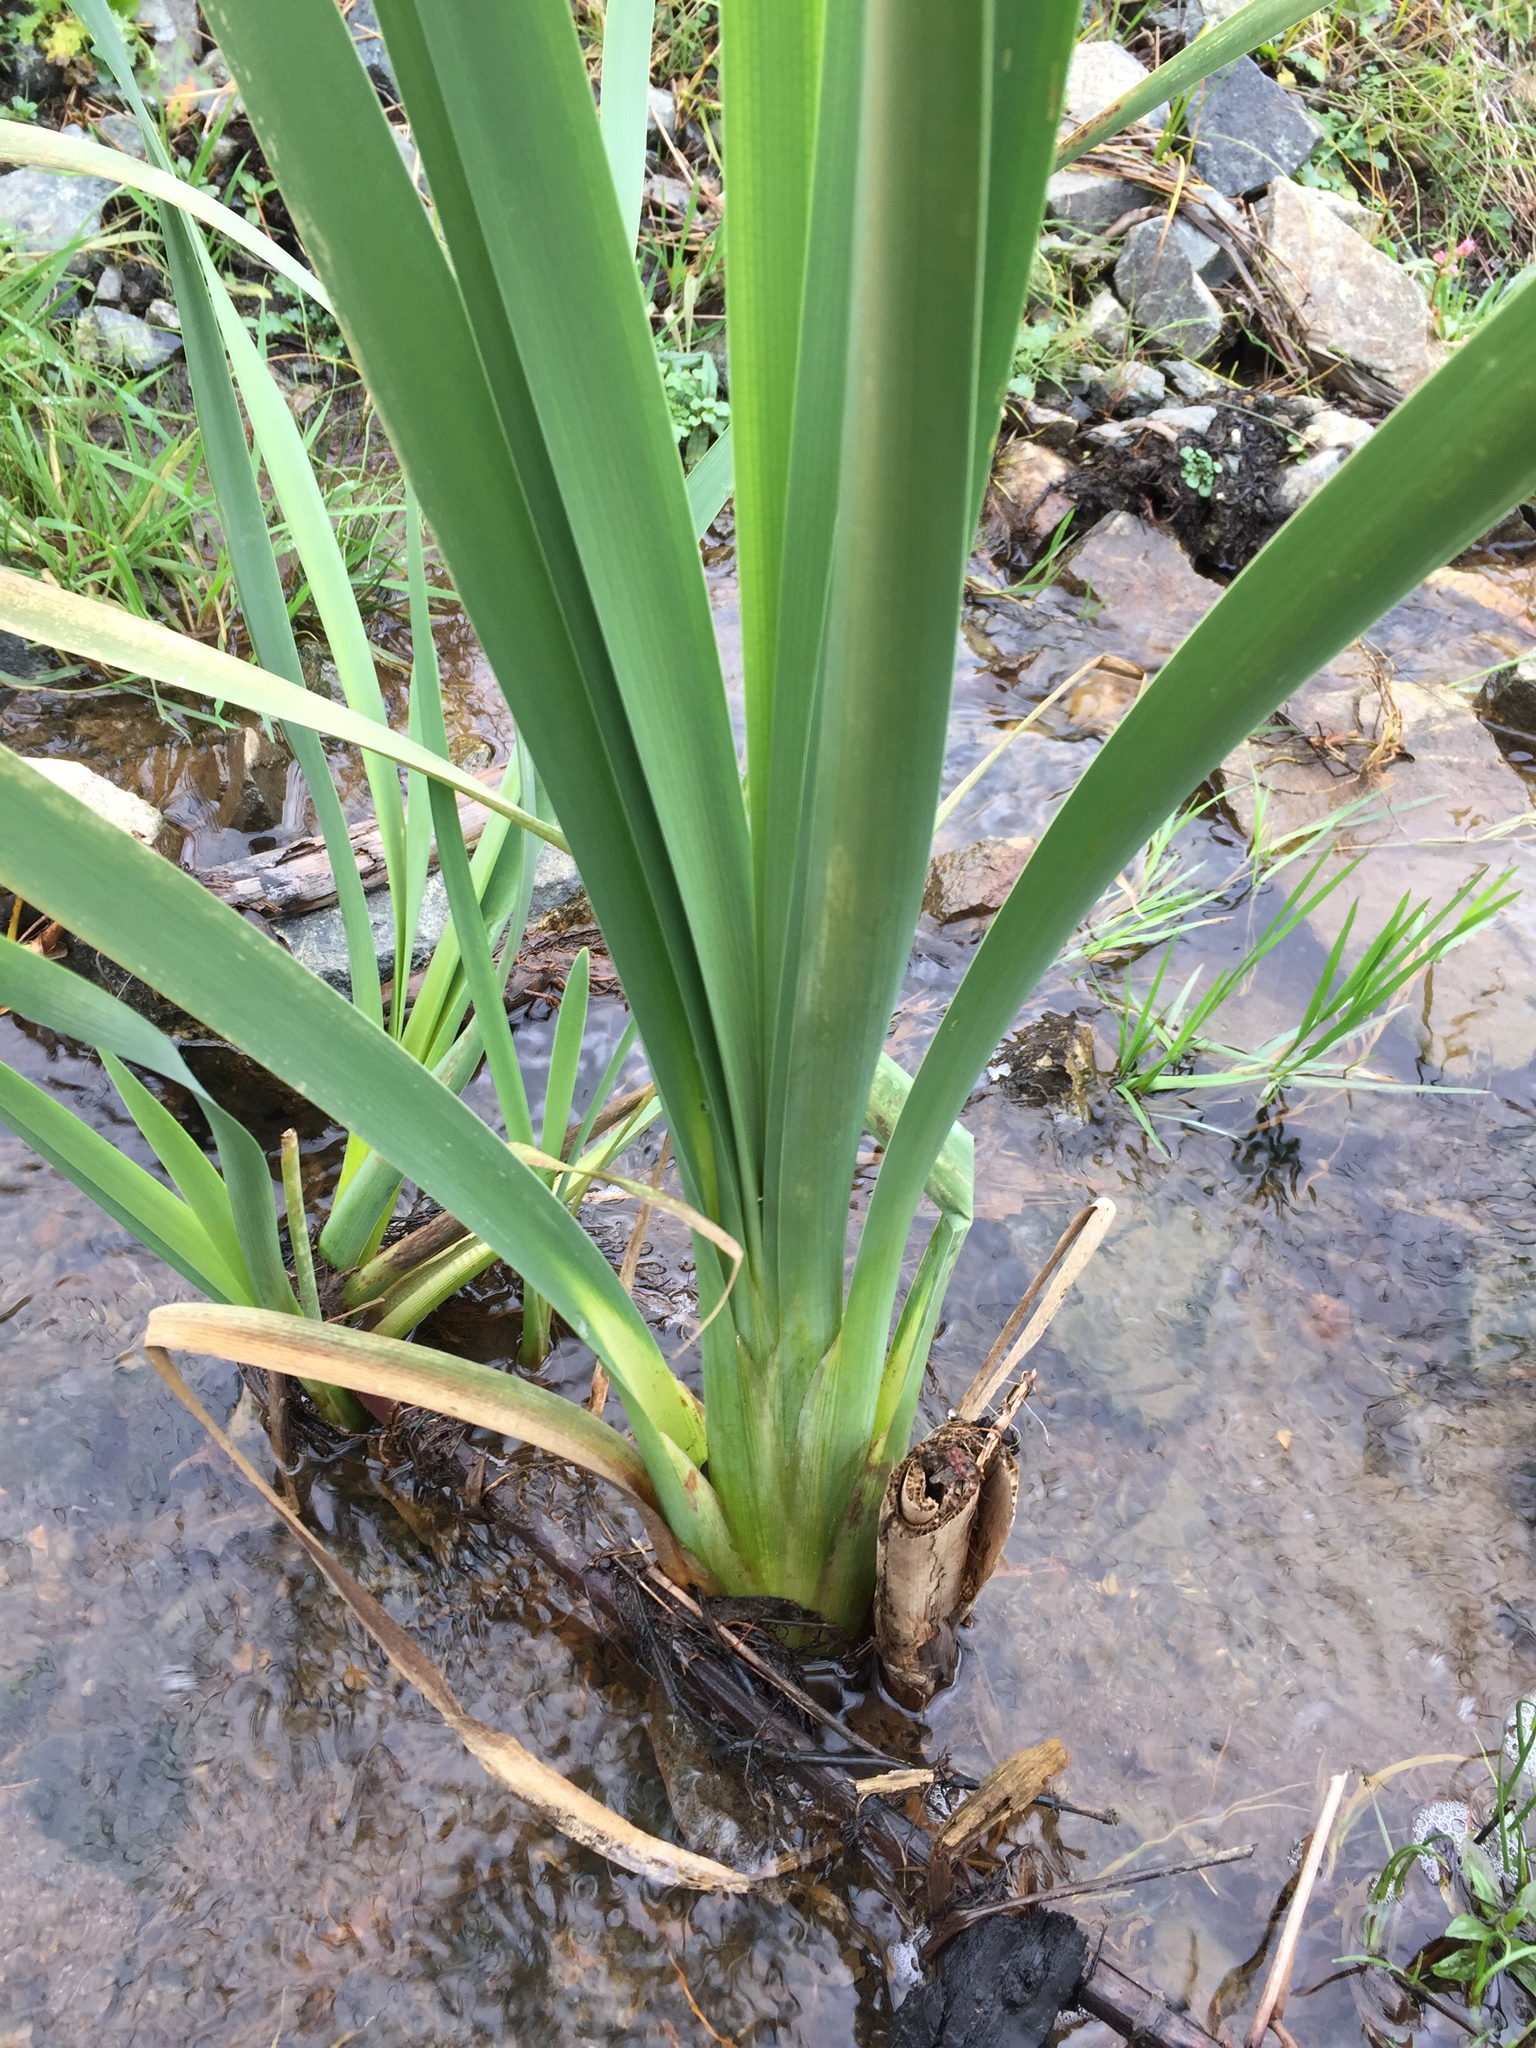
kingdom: Plantae
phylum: Tracheophyta
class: Liliopsida
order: Poales
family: Typhaceae
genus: Typha
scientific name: Typha latifolia
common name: Broadleaf cattail
